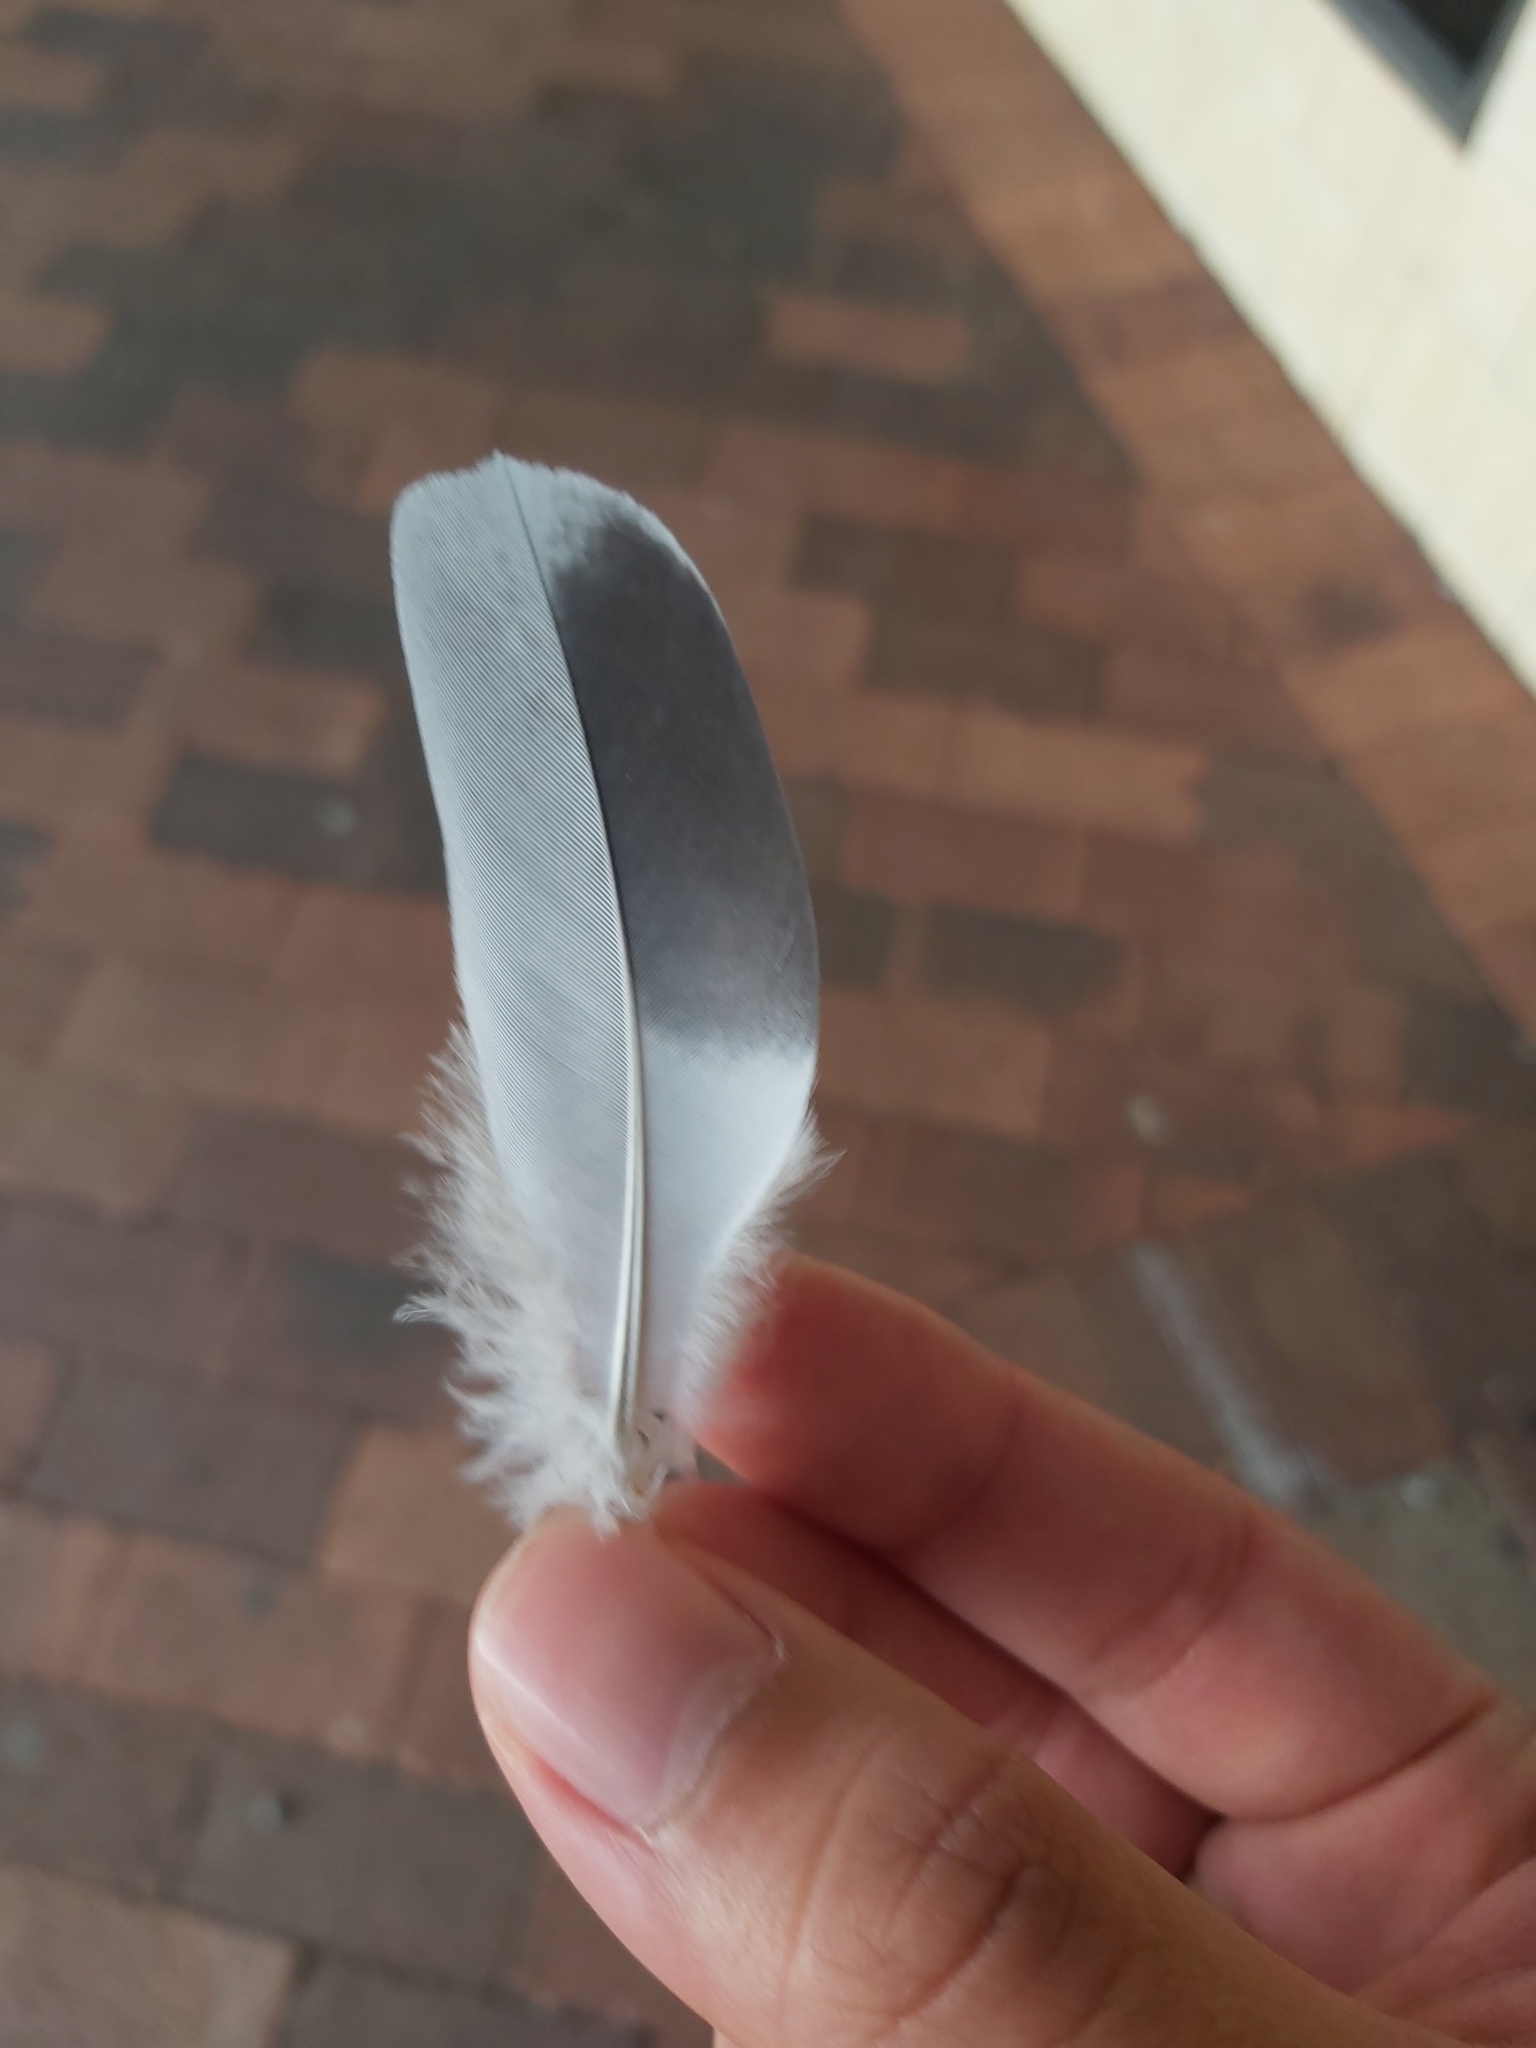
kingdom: Animalia
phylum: Chordata
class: Aves
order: Columbiformes
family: Columbidae
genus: Columba
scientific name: Columba livia
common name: Rock pigeon
